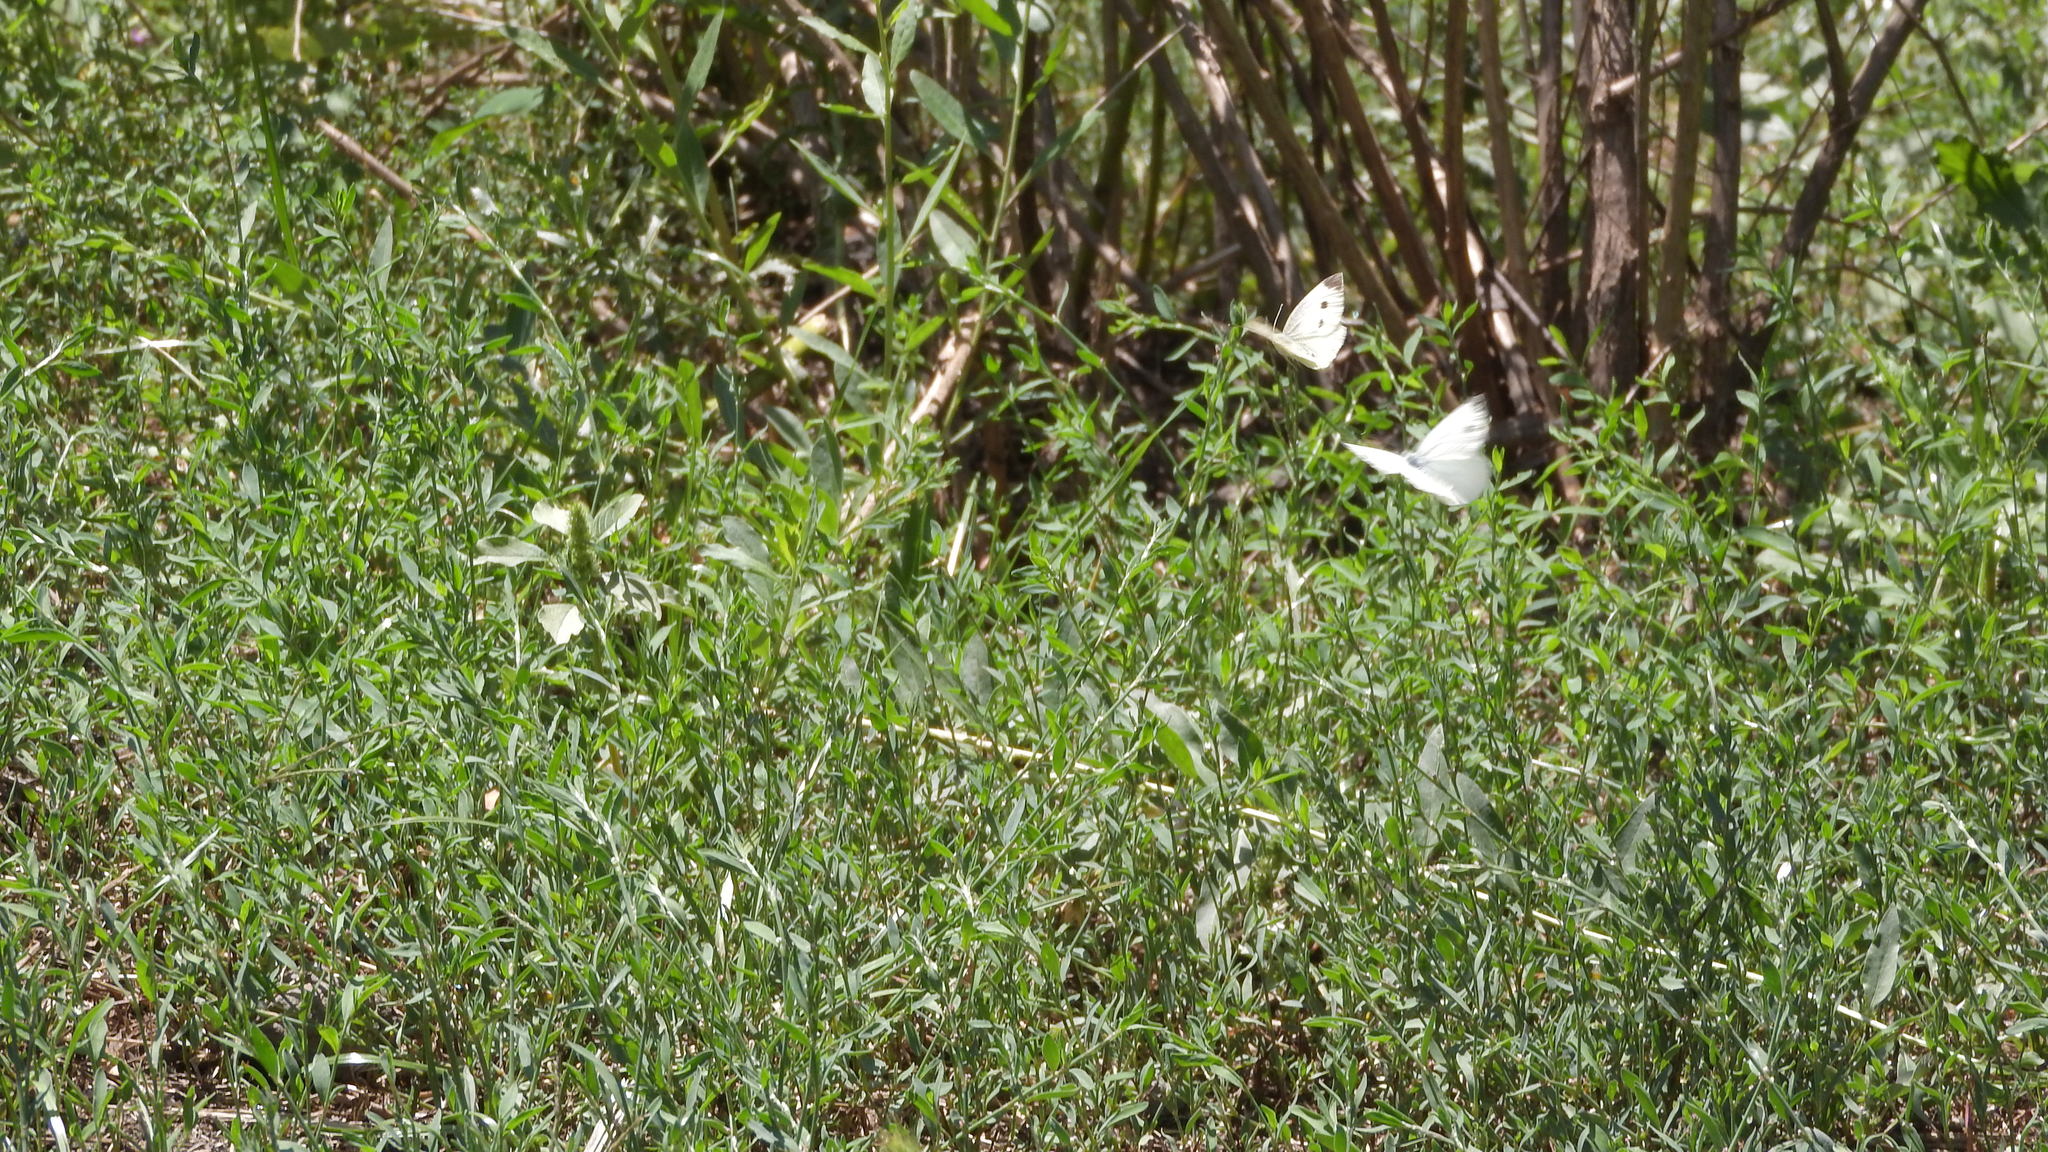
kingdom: Animalia
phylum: Arthropoda
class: Insecta
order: Lepidoptera
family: Pieridae
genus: Pieris
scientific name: Pieris rapae
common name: Small white
